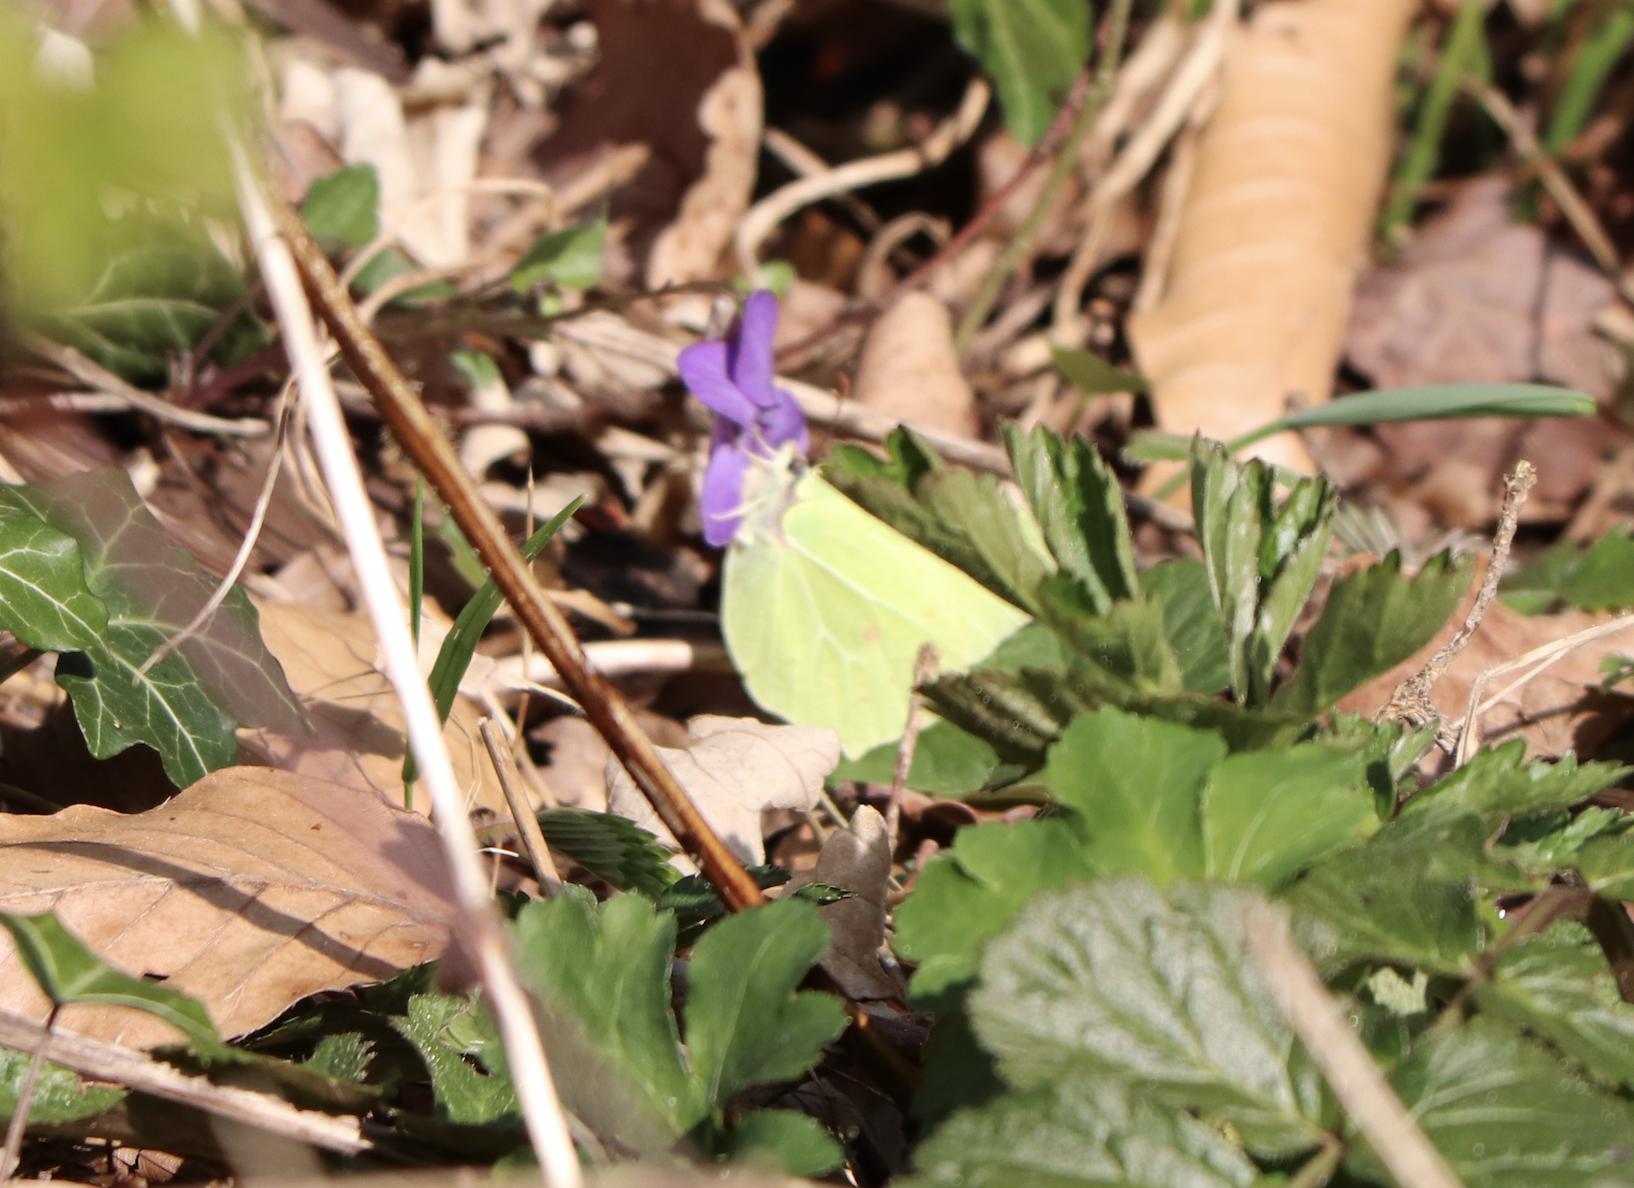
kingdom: Animalia
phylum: Arthropoda
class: Insecta
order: Lepidoptera
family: Pieridae
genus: Gonepteryx
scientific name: Gonepteryx rhamni
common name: Brimstone
